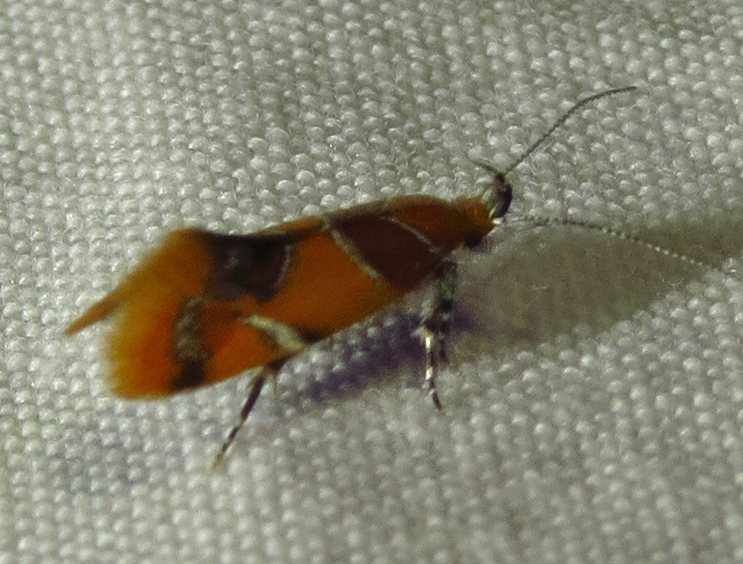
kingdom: Animalia
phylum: Arthropoda
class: Insecta
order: Lepidoptera
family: Oecophoridae
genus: Callima
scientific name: Callima argenticinctella
